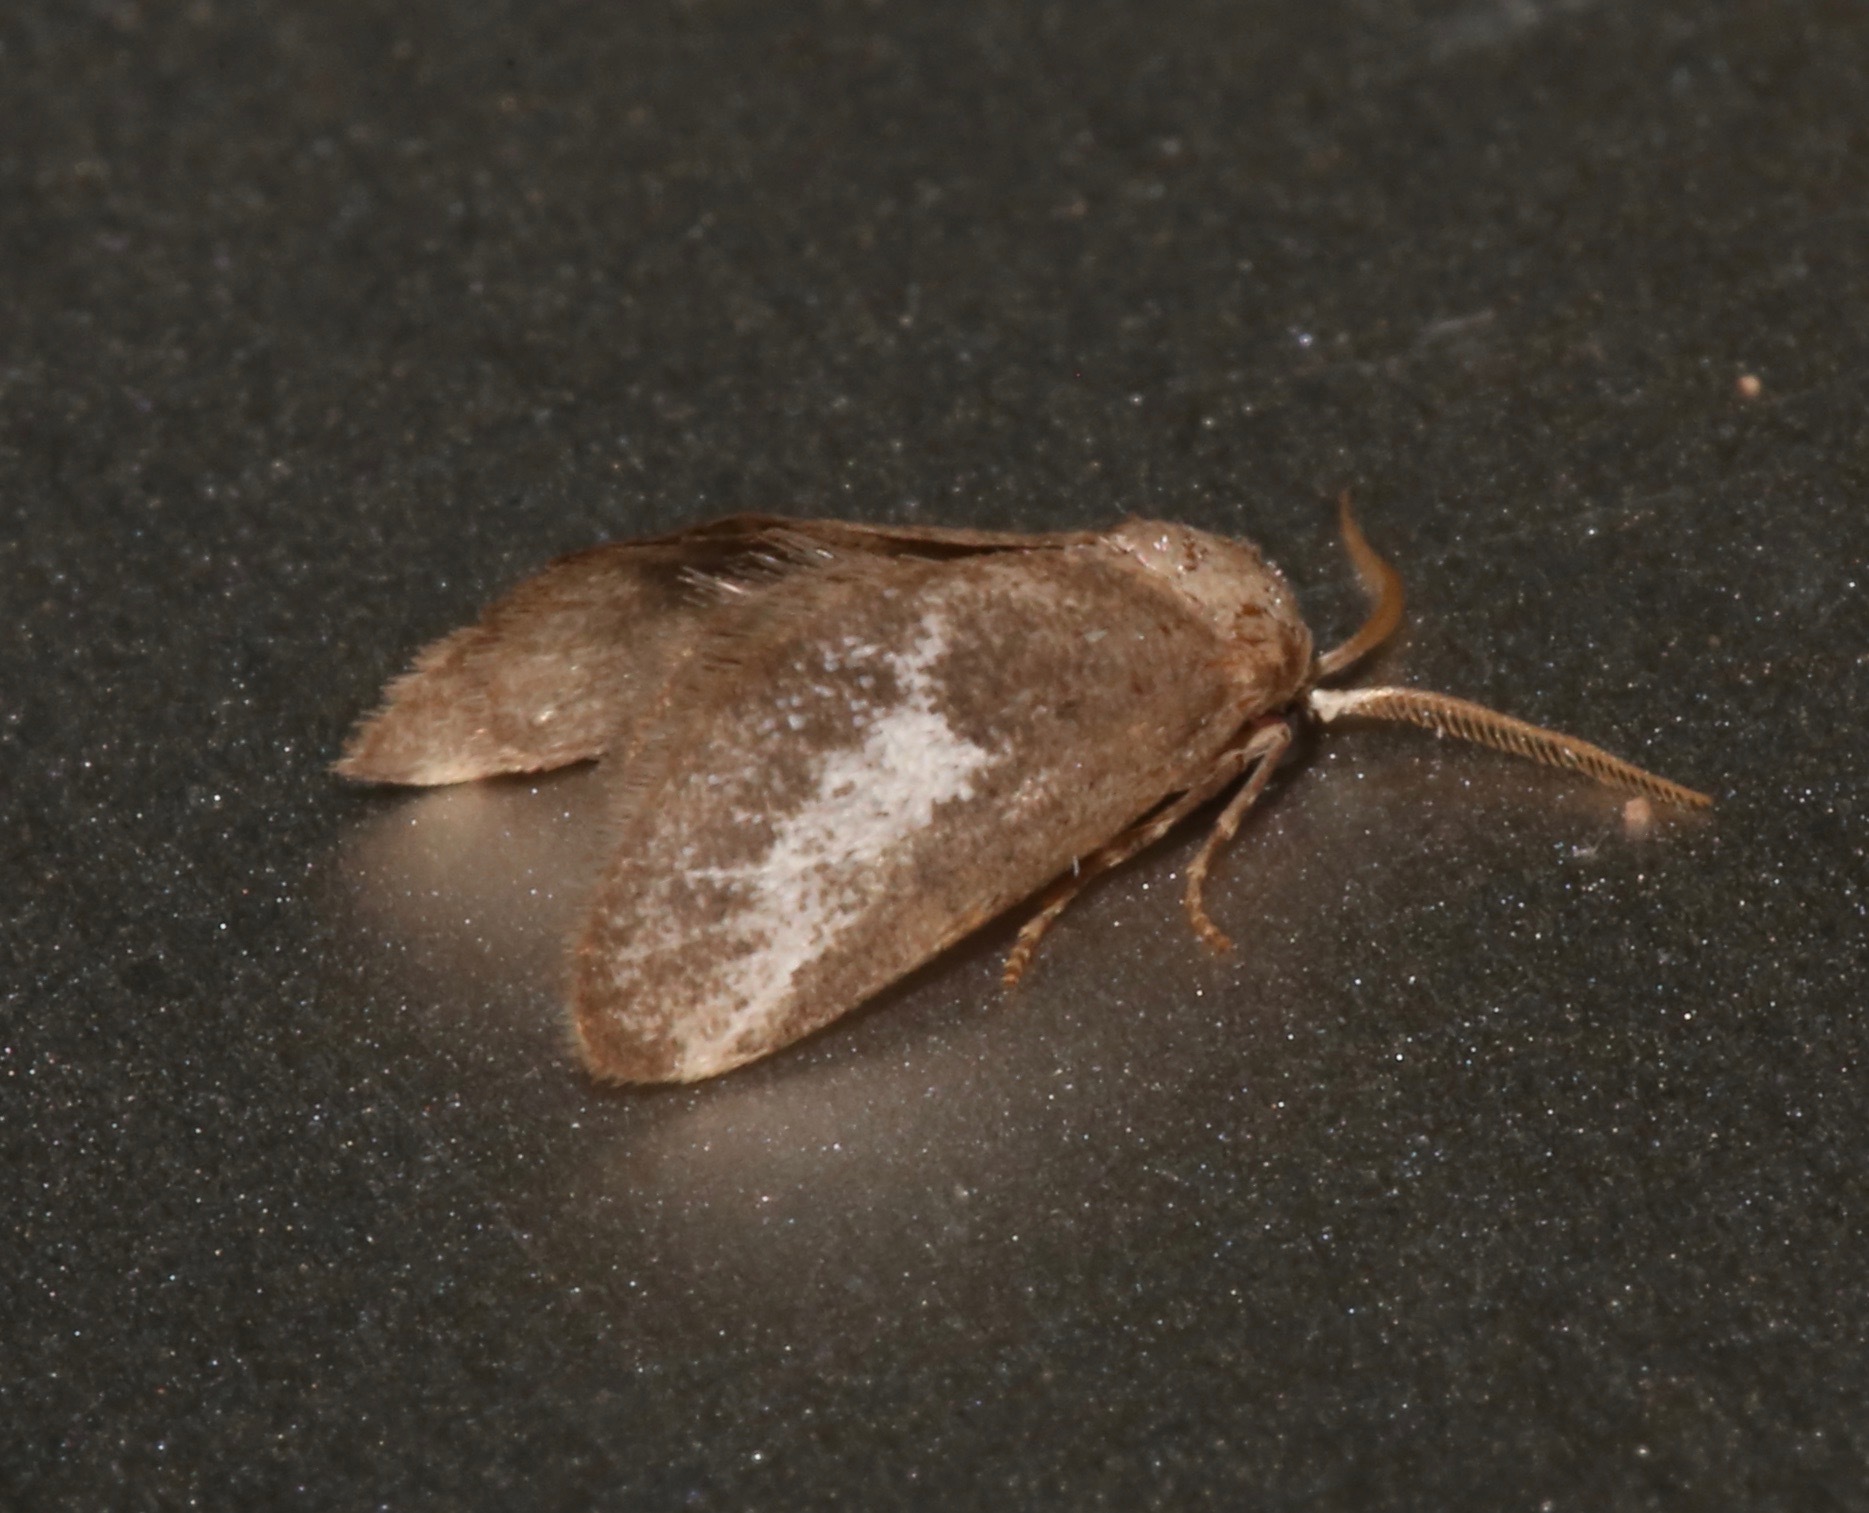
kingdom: Animalia
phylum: Arthropoda
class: Insecta
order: Lepidoptera
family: Limacodidae
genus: Cryptophobetron
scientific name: Cryptophobetron oropeso
